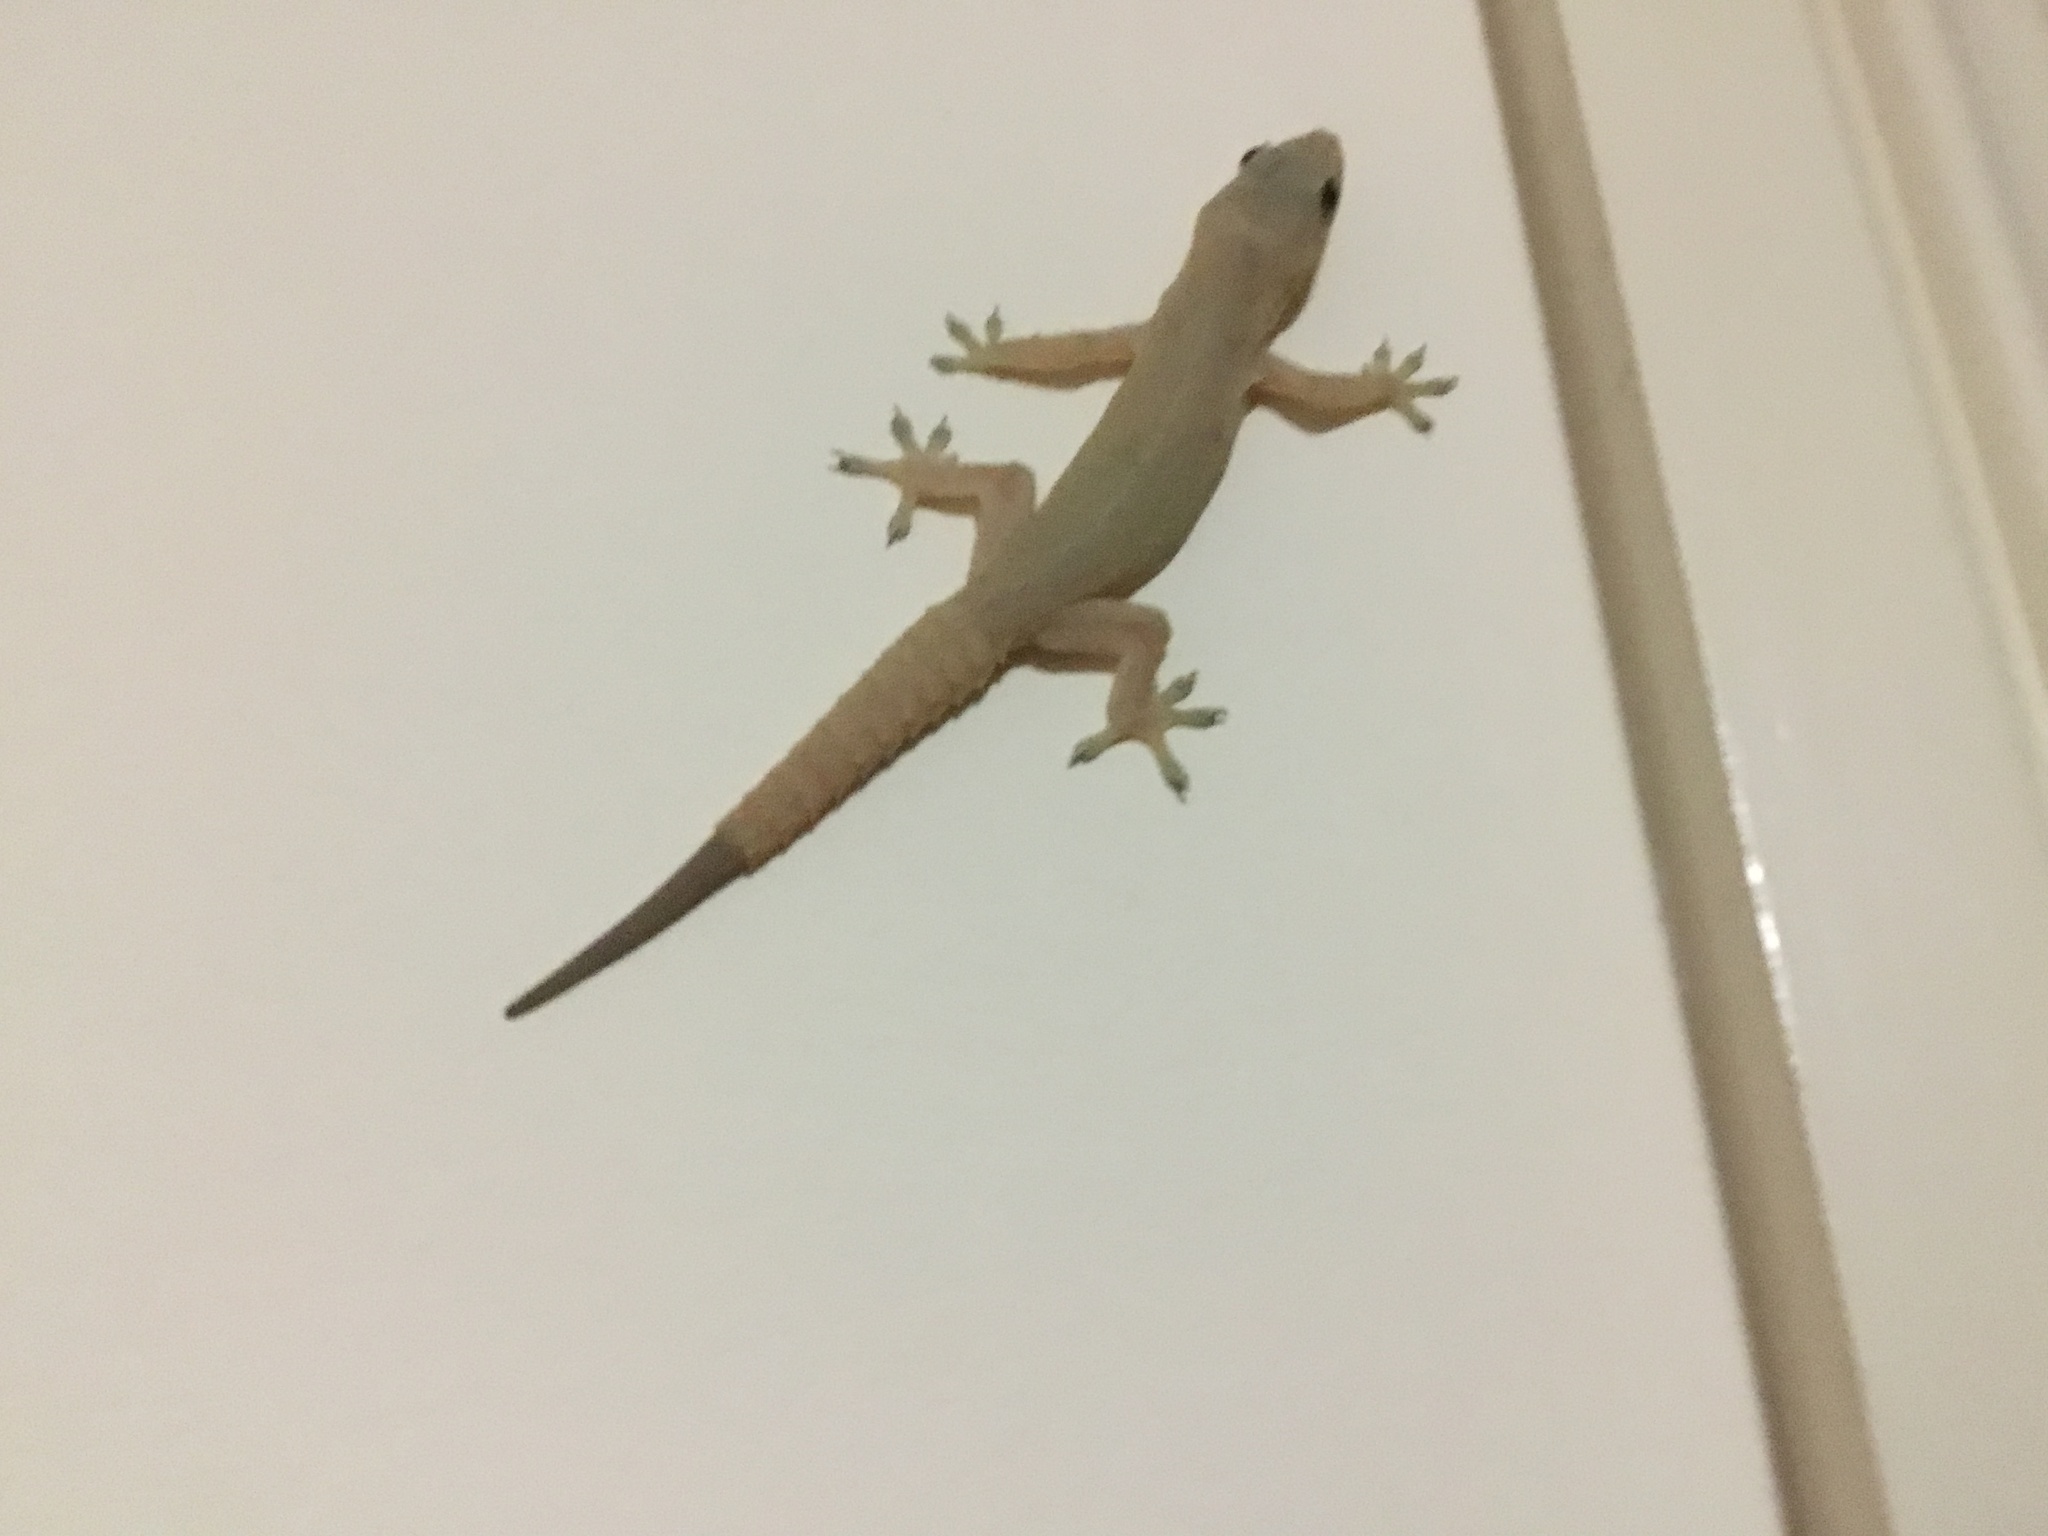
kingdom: Animalia
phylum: Chordata
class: Squamata
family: Gekkonidae
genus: Hemidactylus
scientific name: Hemidactylus frenatus
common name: Common house gecko
